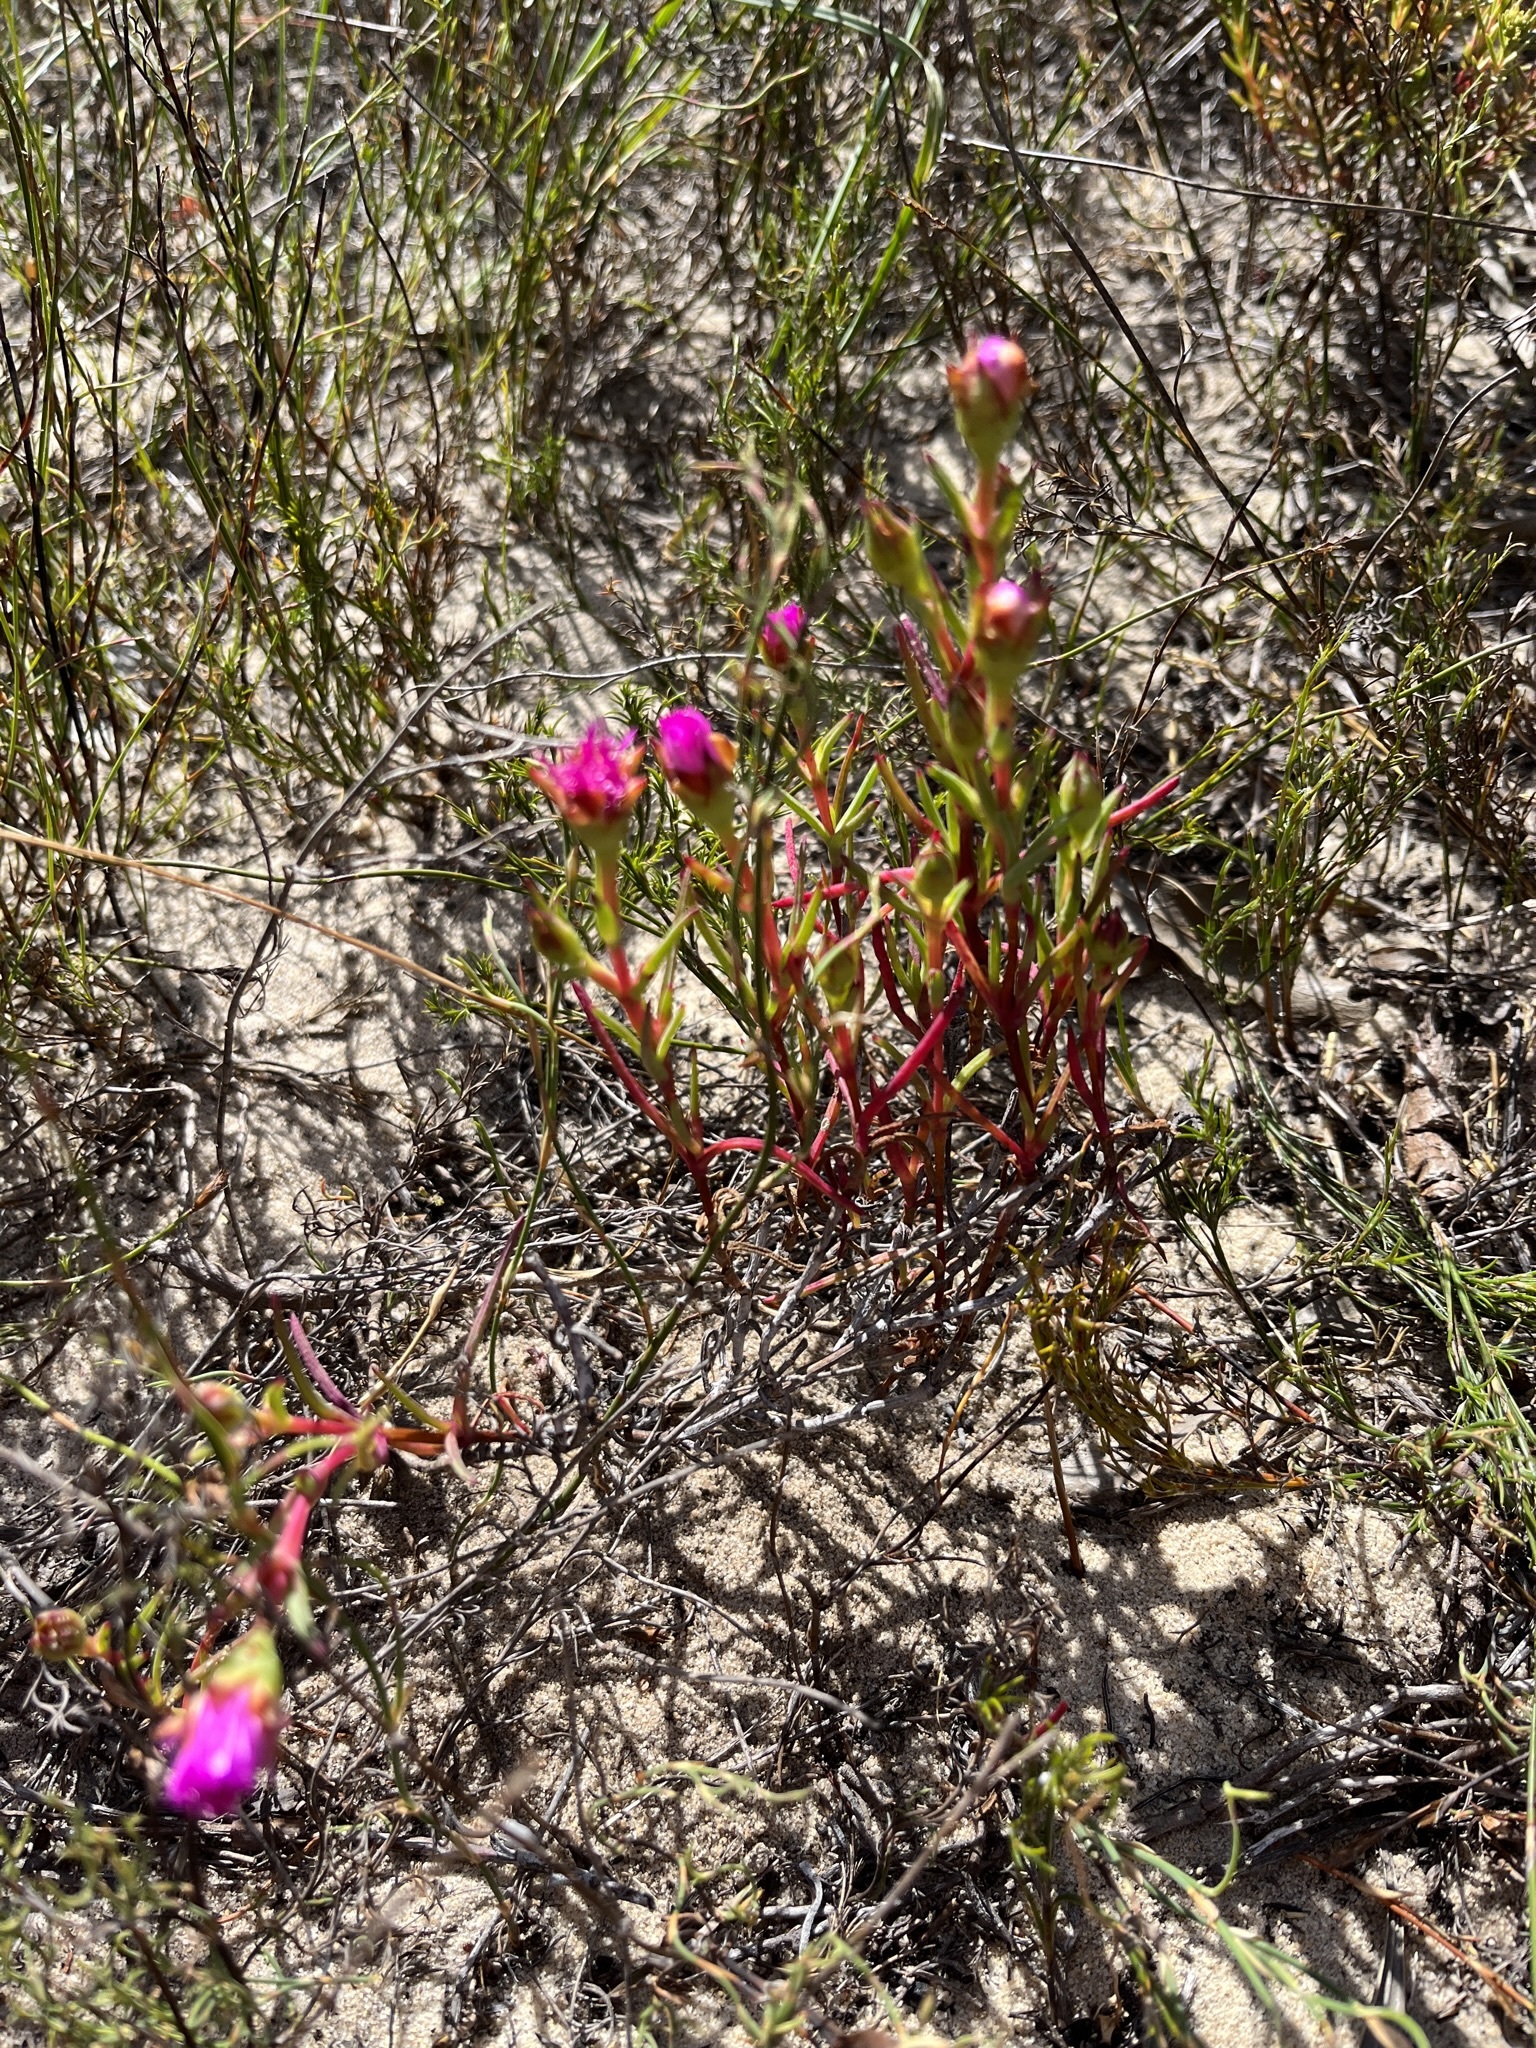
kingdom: Plantae
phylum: Tracheophyta
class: Magnoliopsida
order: Caryophyllales
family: Aizoaceae
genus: Lampranthus
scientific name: Lampranthus tenuifolius
